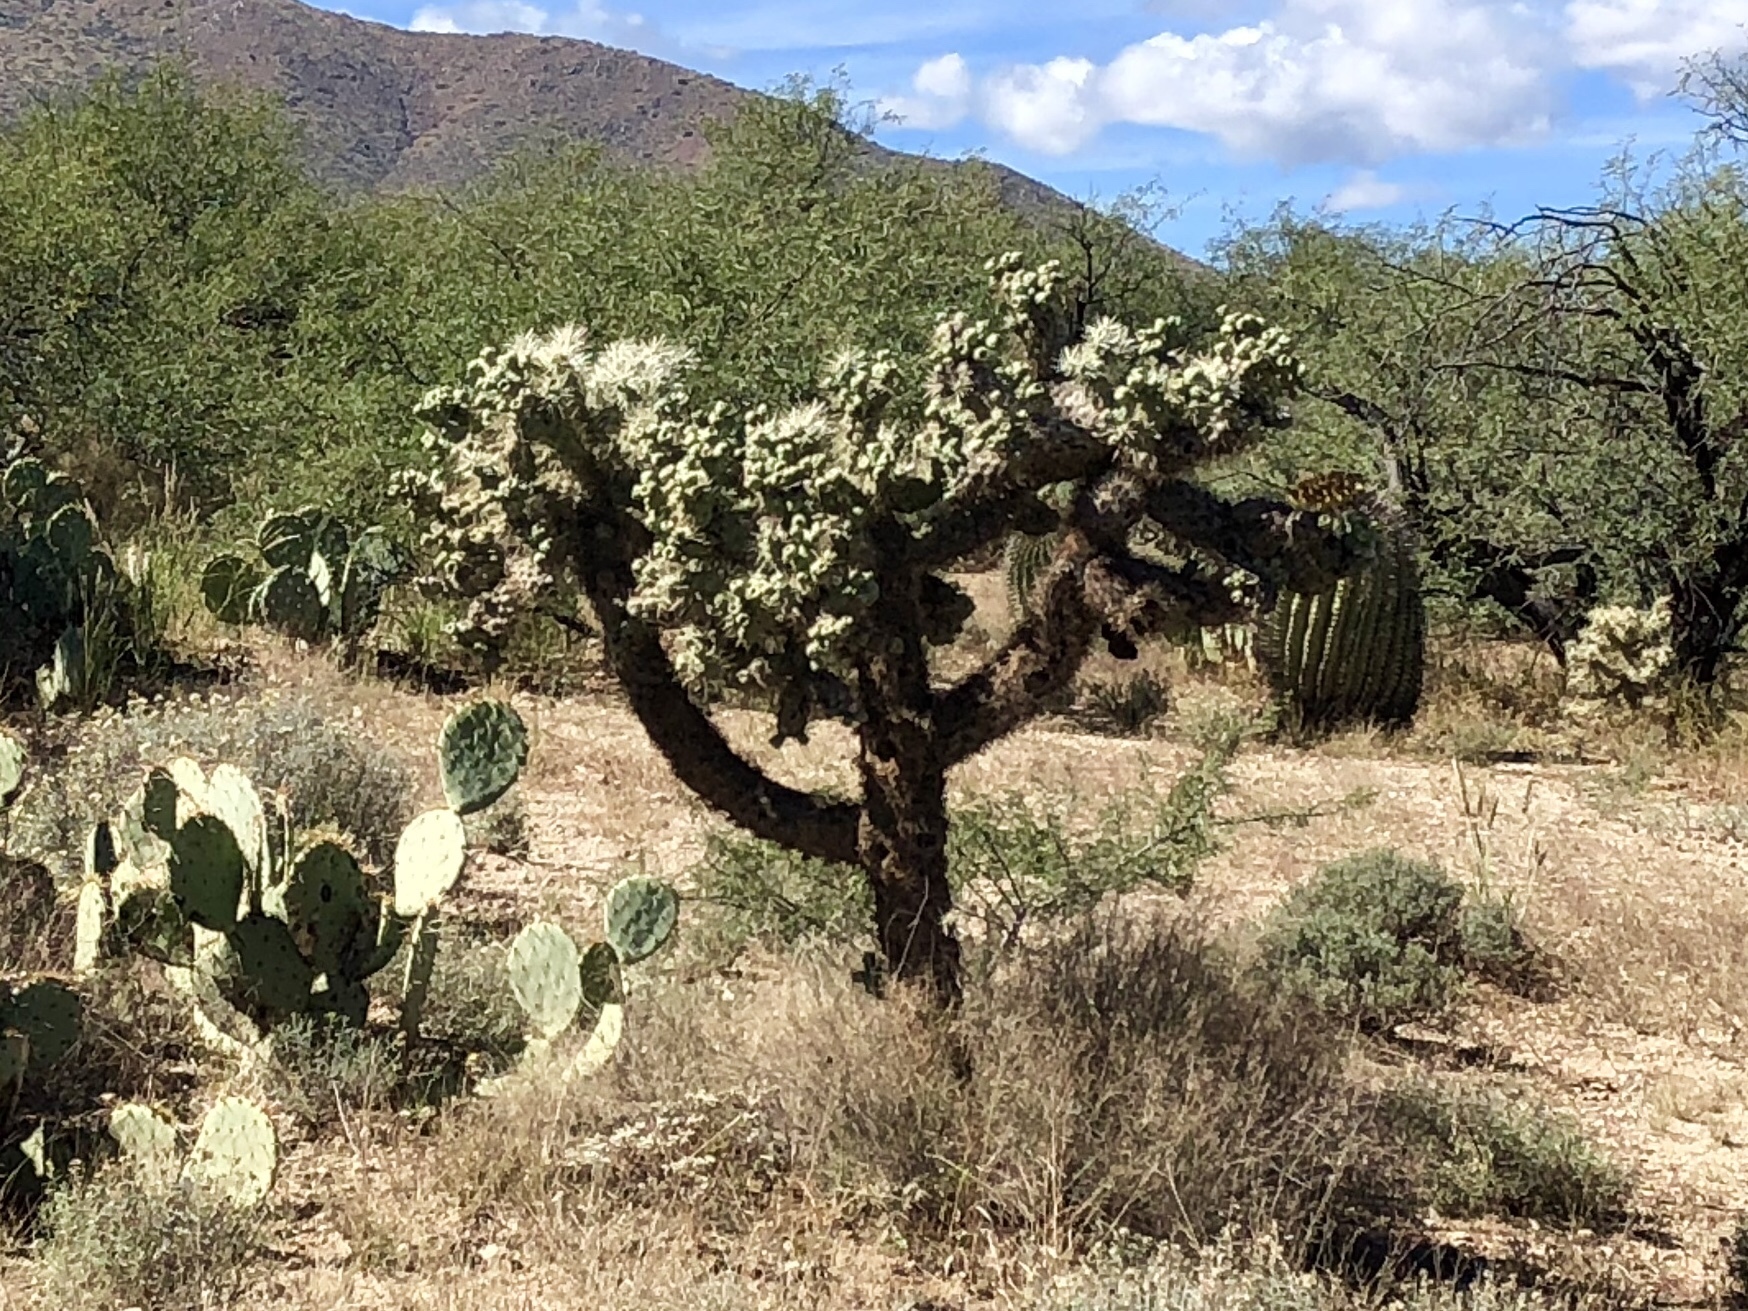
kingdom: Plantae
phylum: Tracheophyta
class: Magnoliopsida
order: Caryophyllales
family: Cactaceae
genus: Cylindropuntia
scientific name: Cylindropuntia fulgida
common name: Jumping cholla
